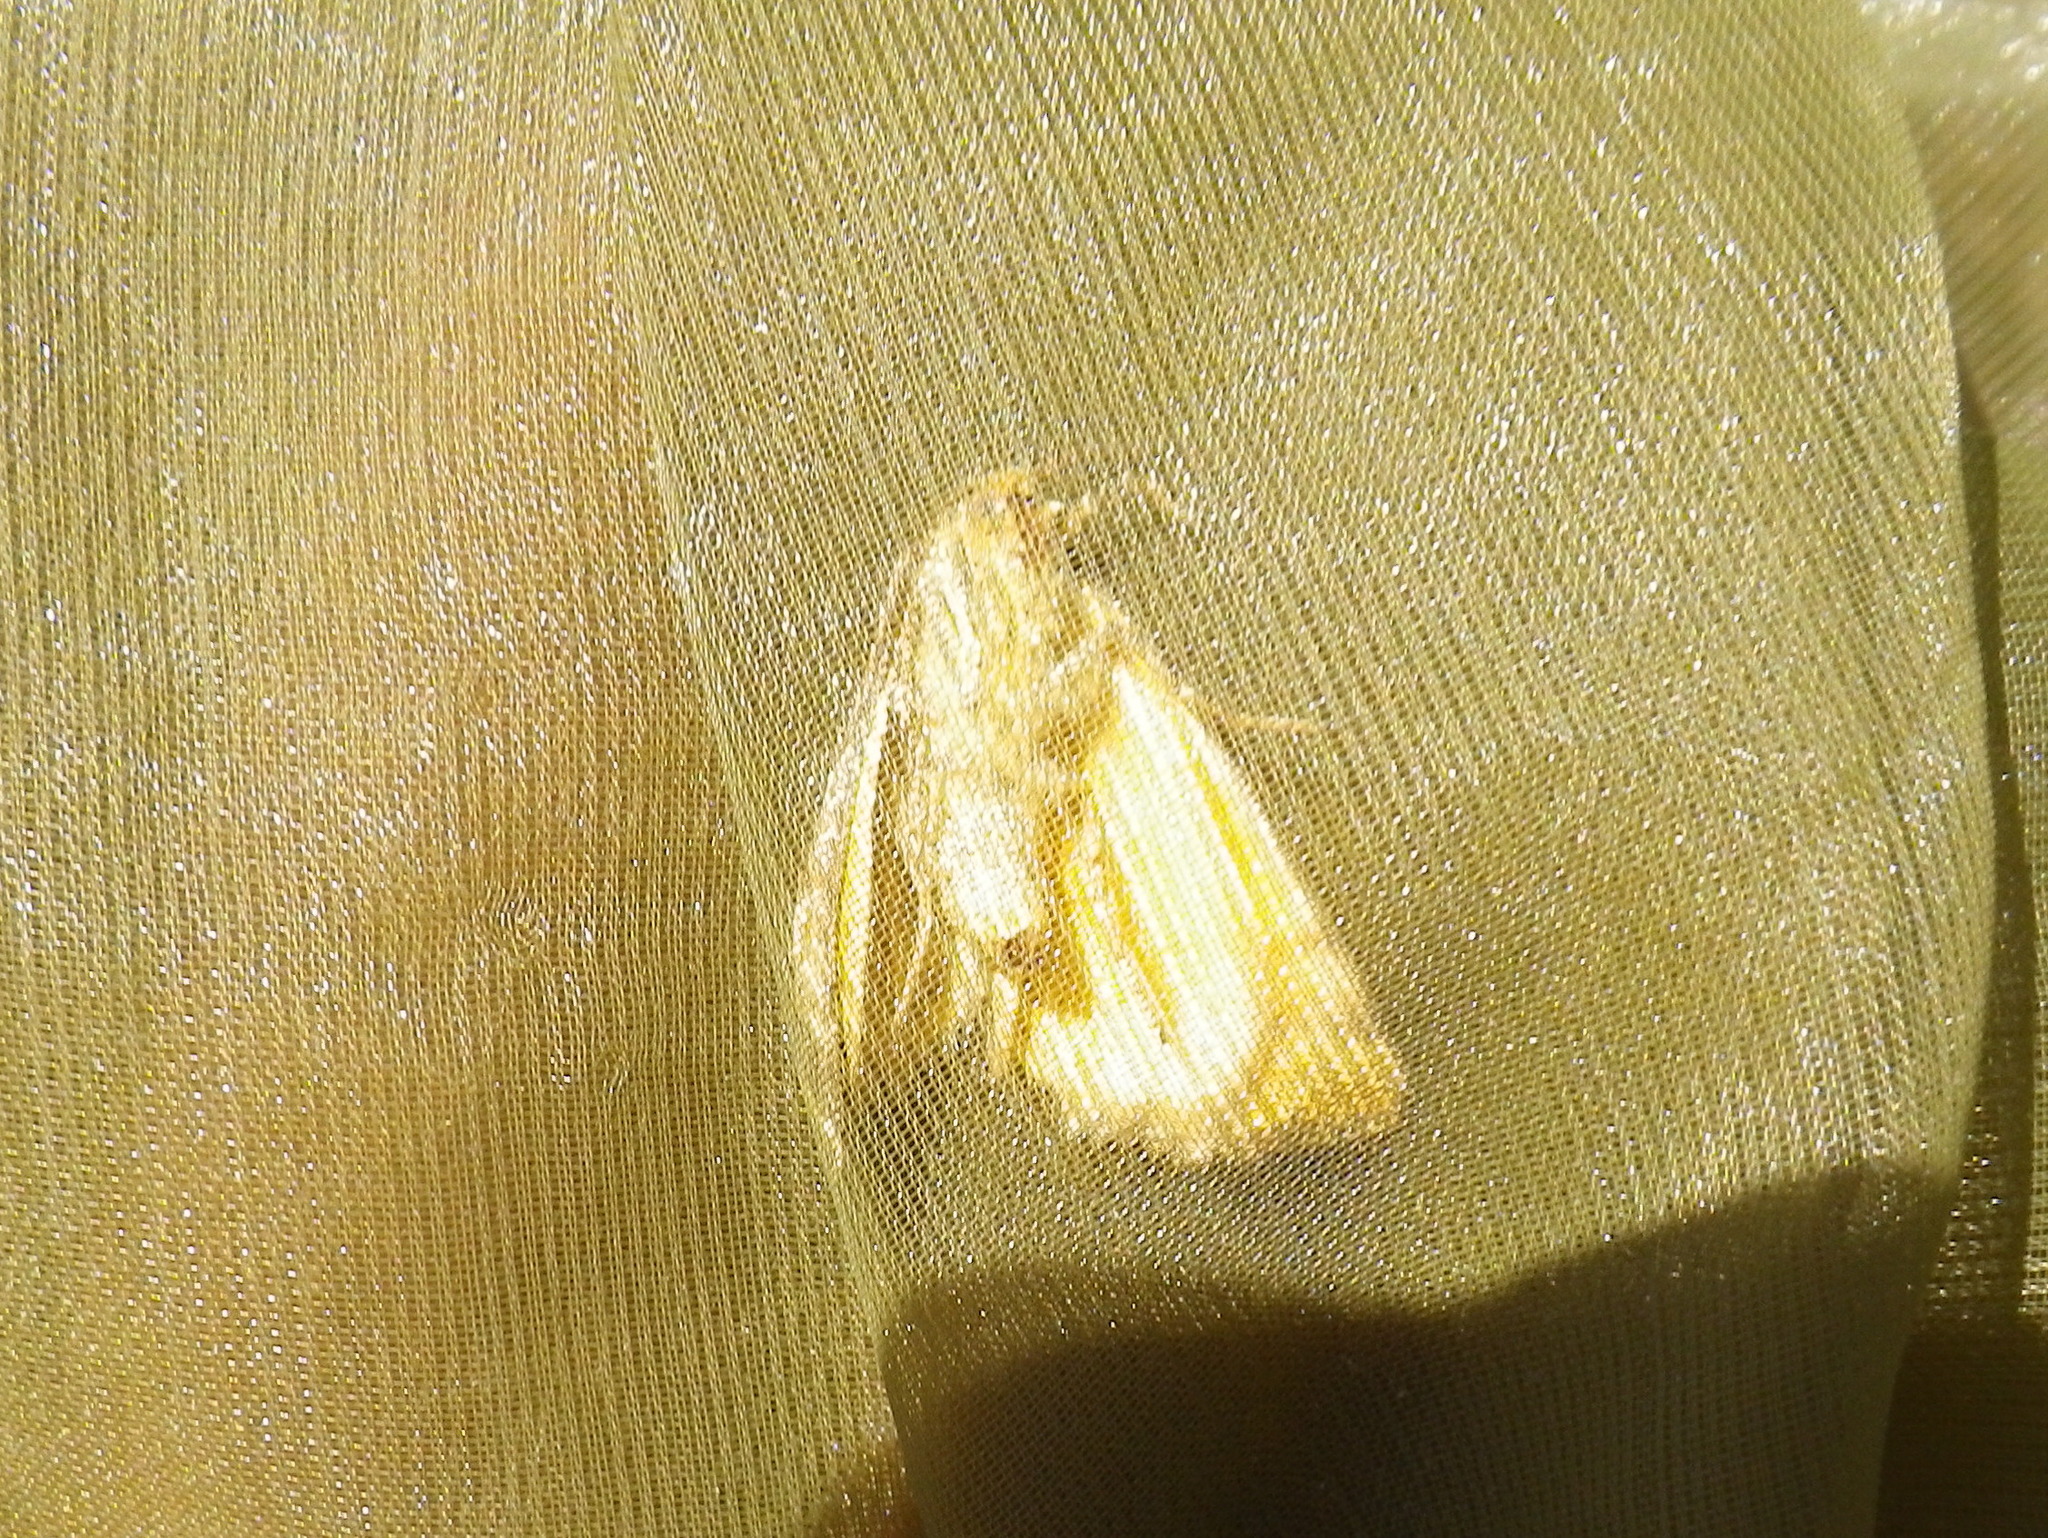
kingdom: Animalia
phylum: Arthropoda
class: Insecta
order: Lepidoptera
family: Noctuidae
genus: Synthymia
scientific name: Synthymia fixa
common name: Goldwing
